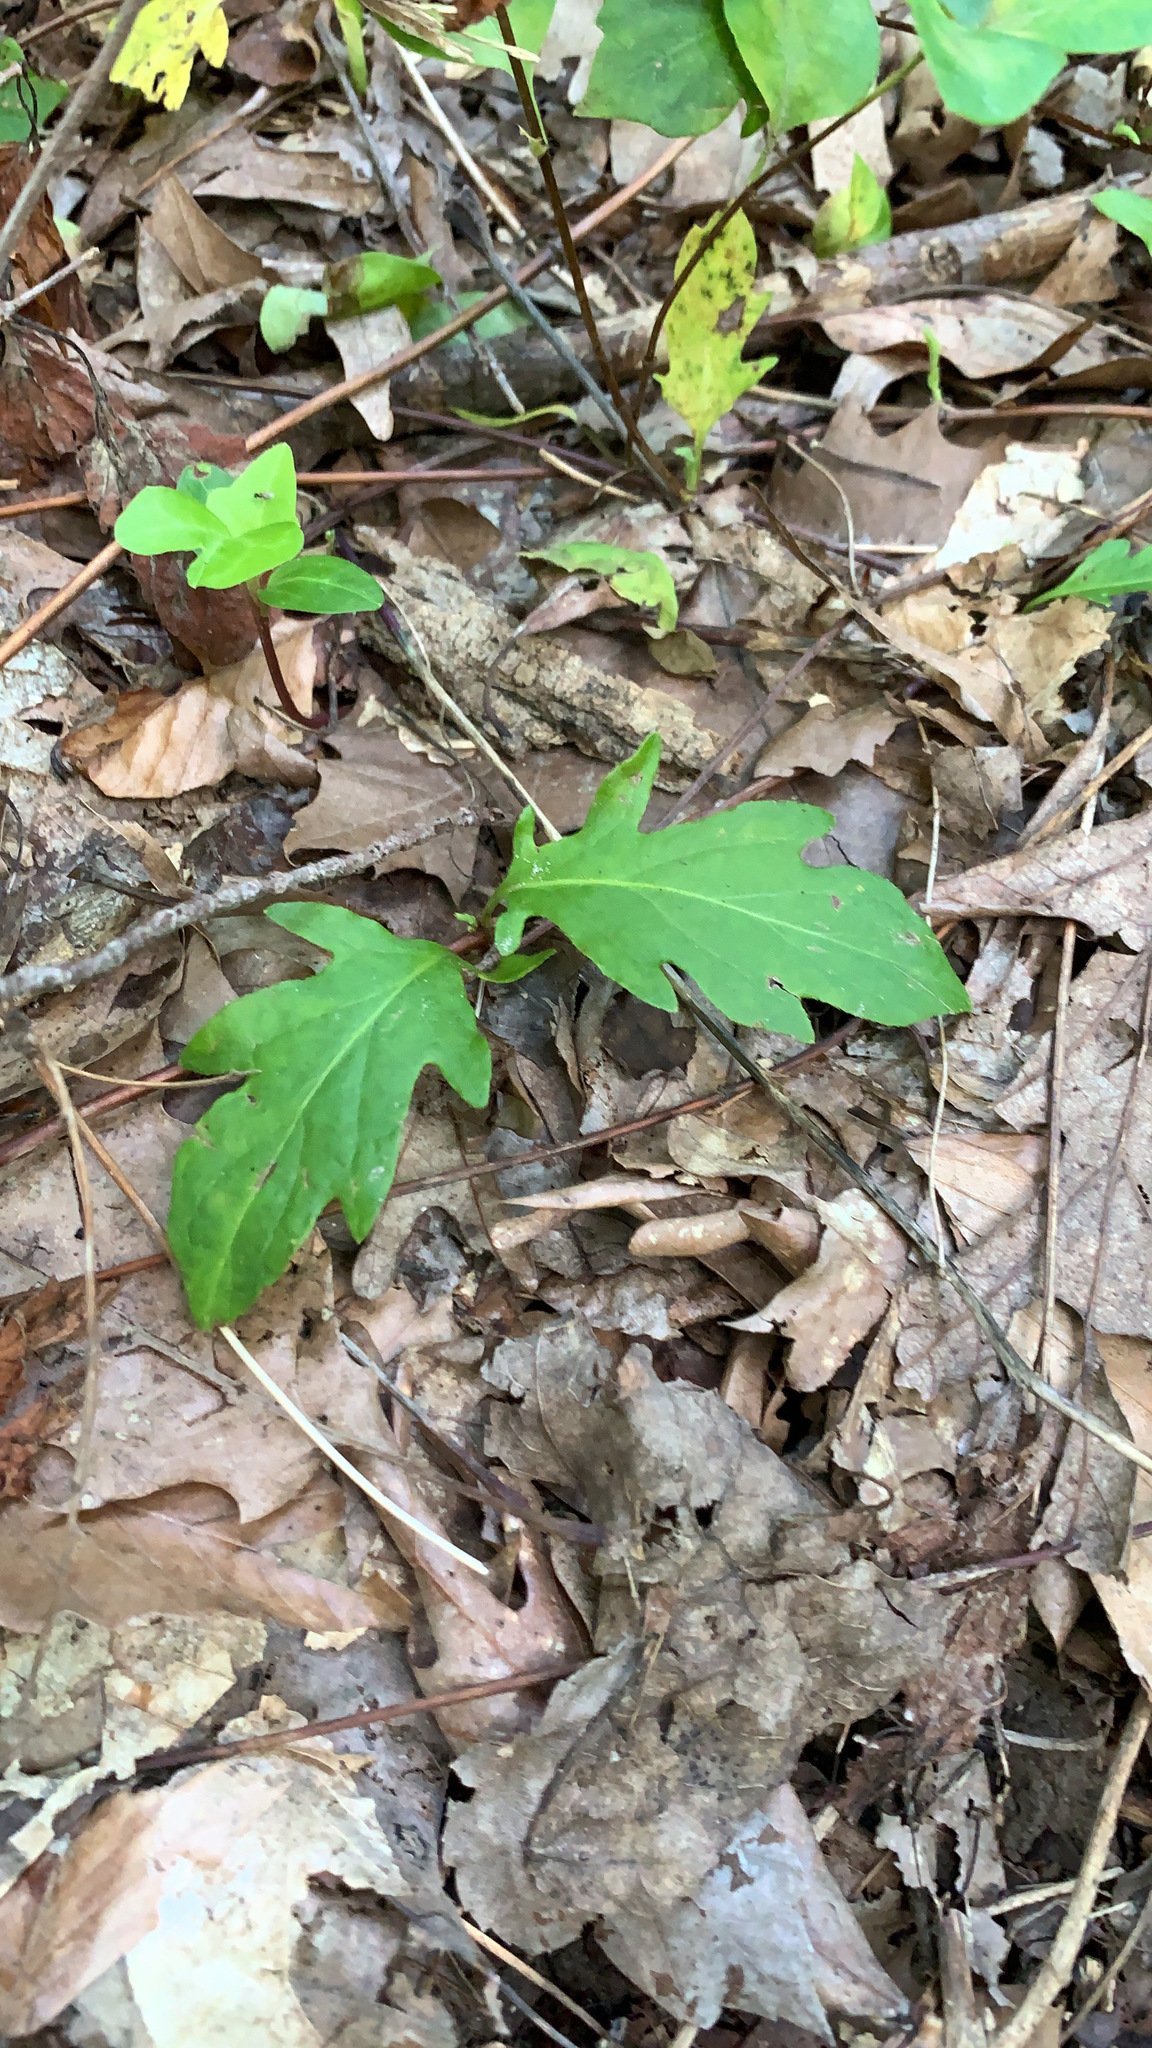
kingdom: Plantae
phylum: Tracheophyta
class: Magnoliopsida
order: Dipsacales
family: Caprifoliaceae
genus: Lonicera
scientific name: Lonicera japonica
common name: Japanese honeysuckle
